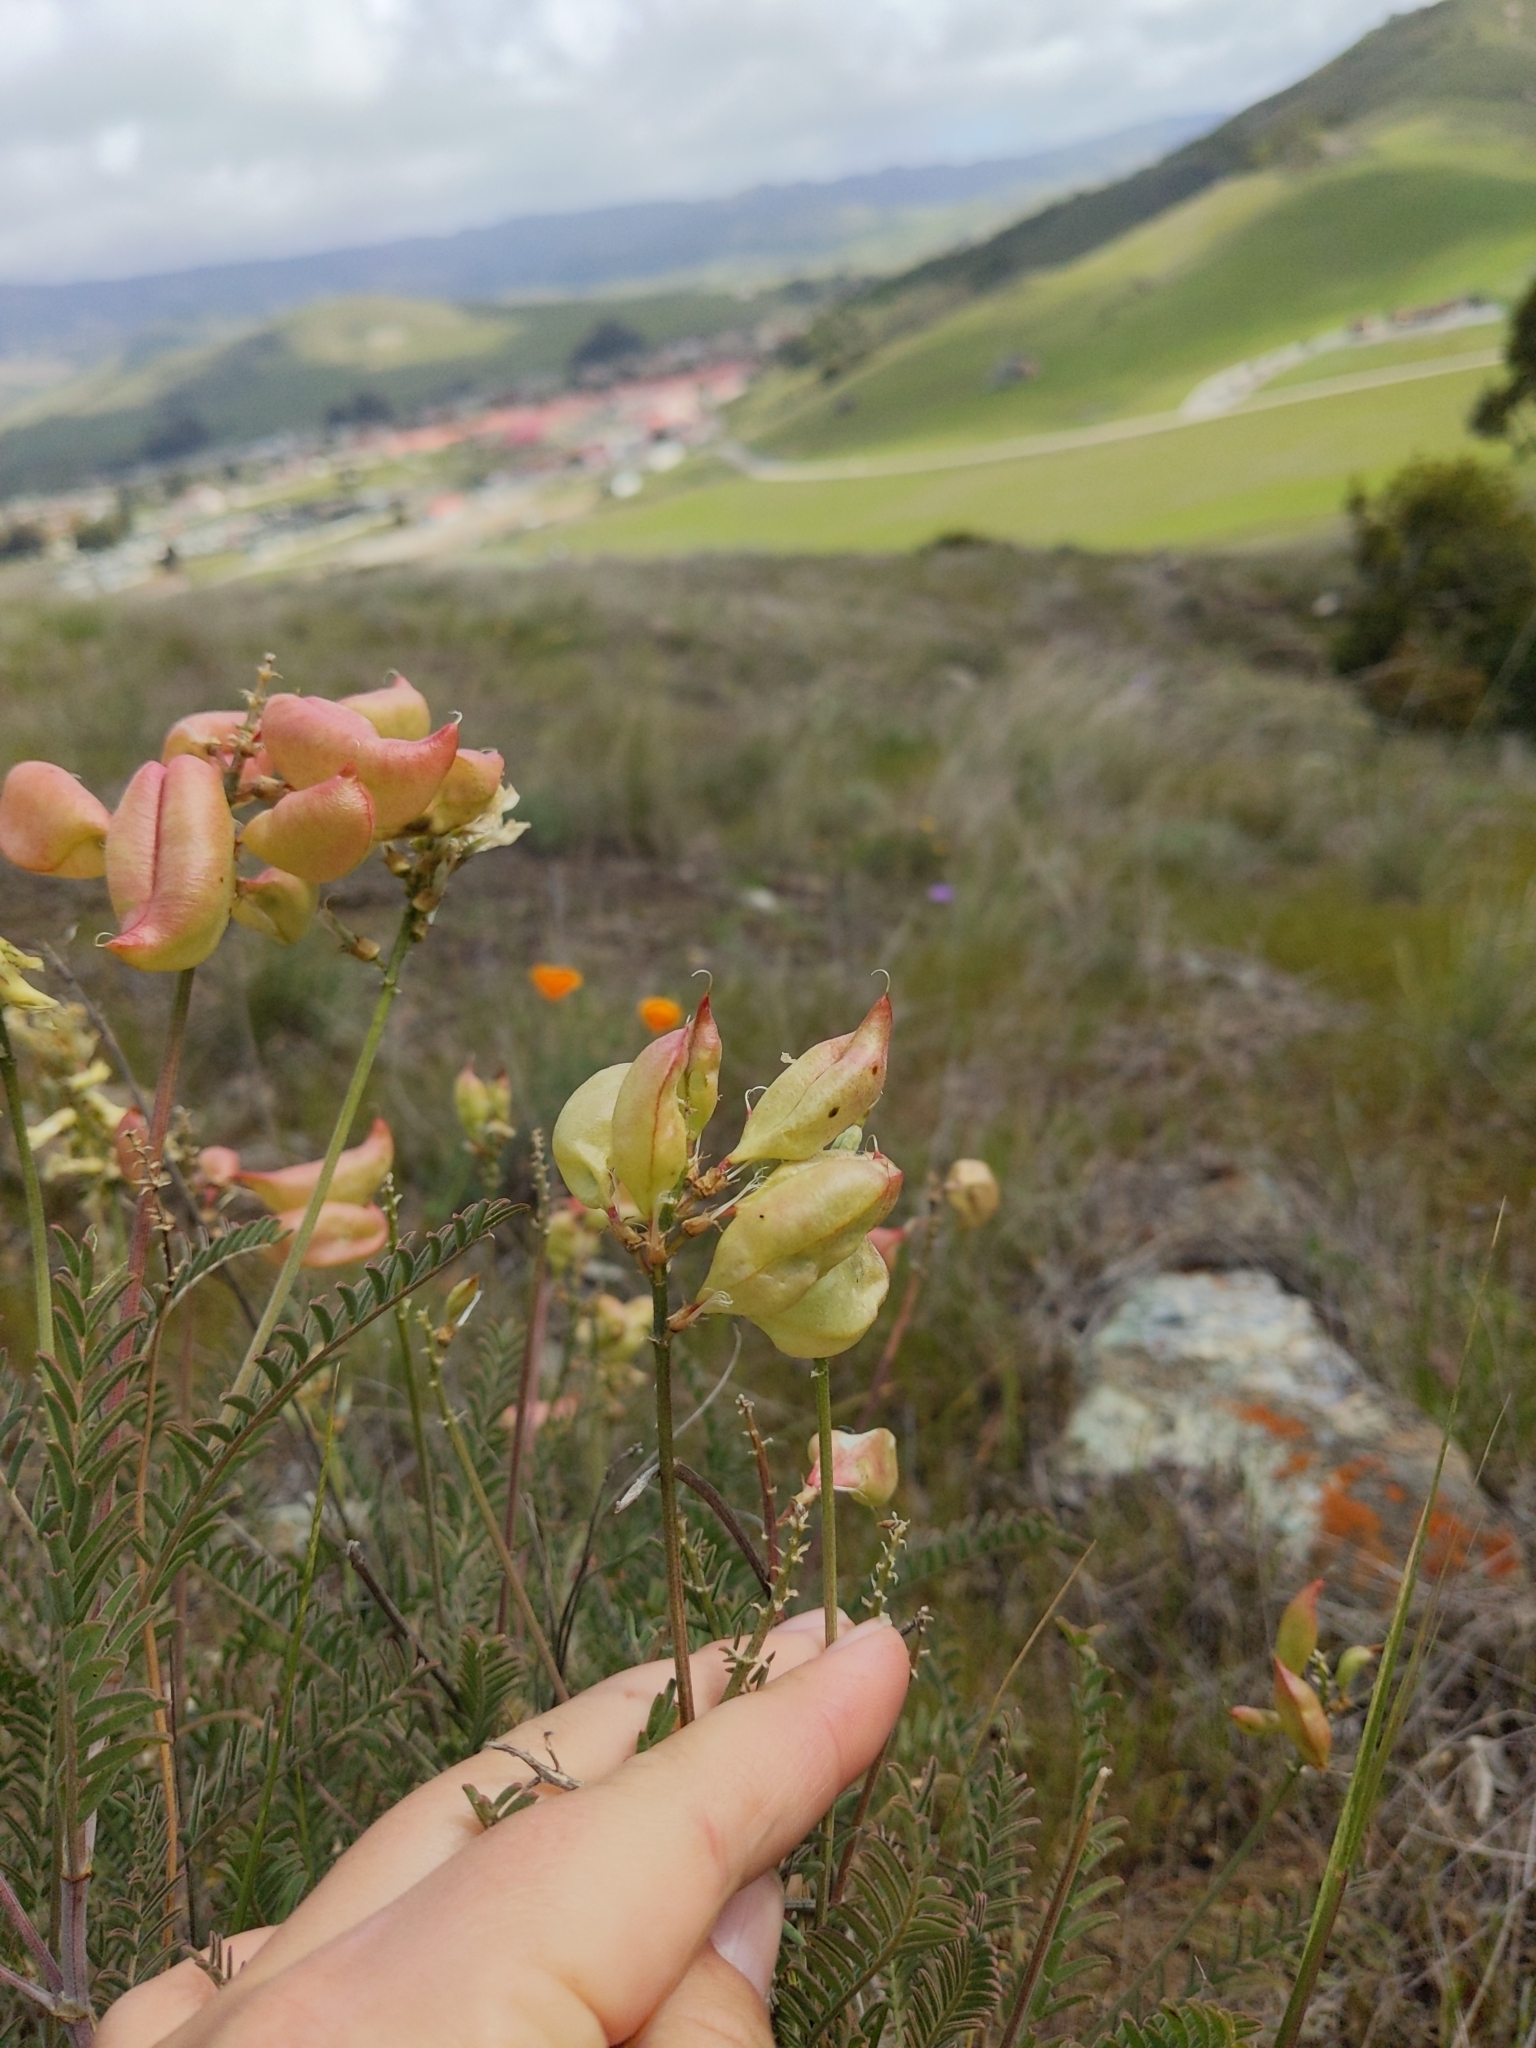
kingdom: Plantae
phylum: Tracheophyta
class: Magnoliopsida
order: Fabales
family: Fabaceae
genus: Astragalus
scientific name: Astragalus curtipes
